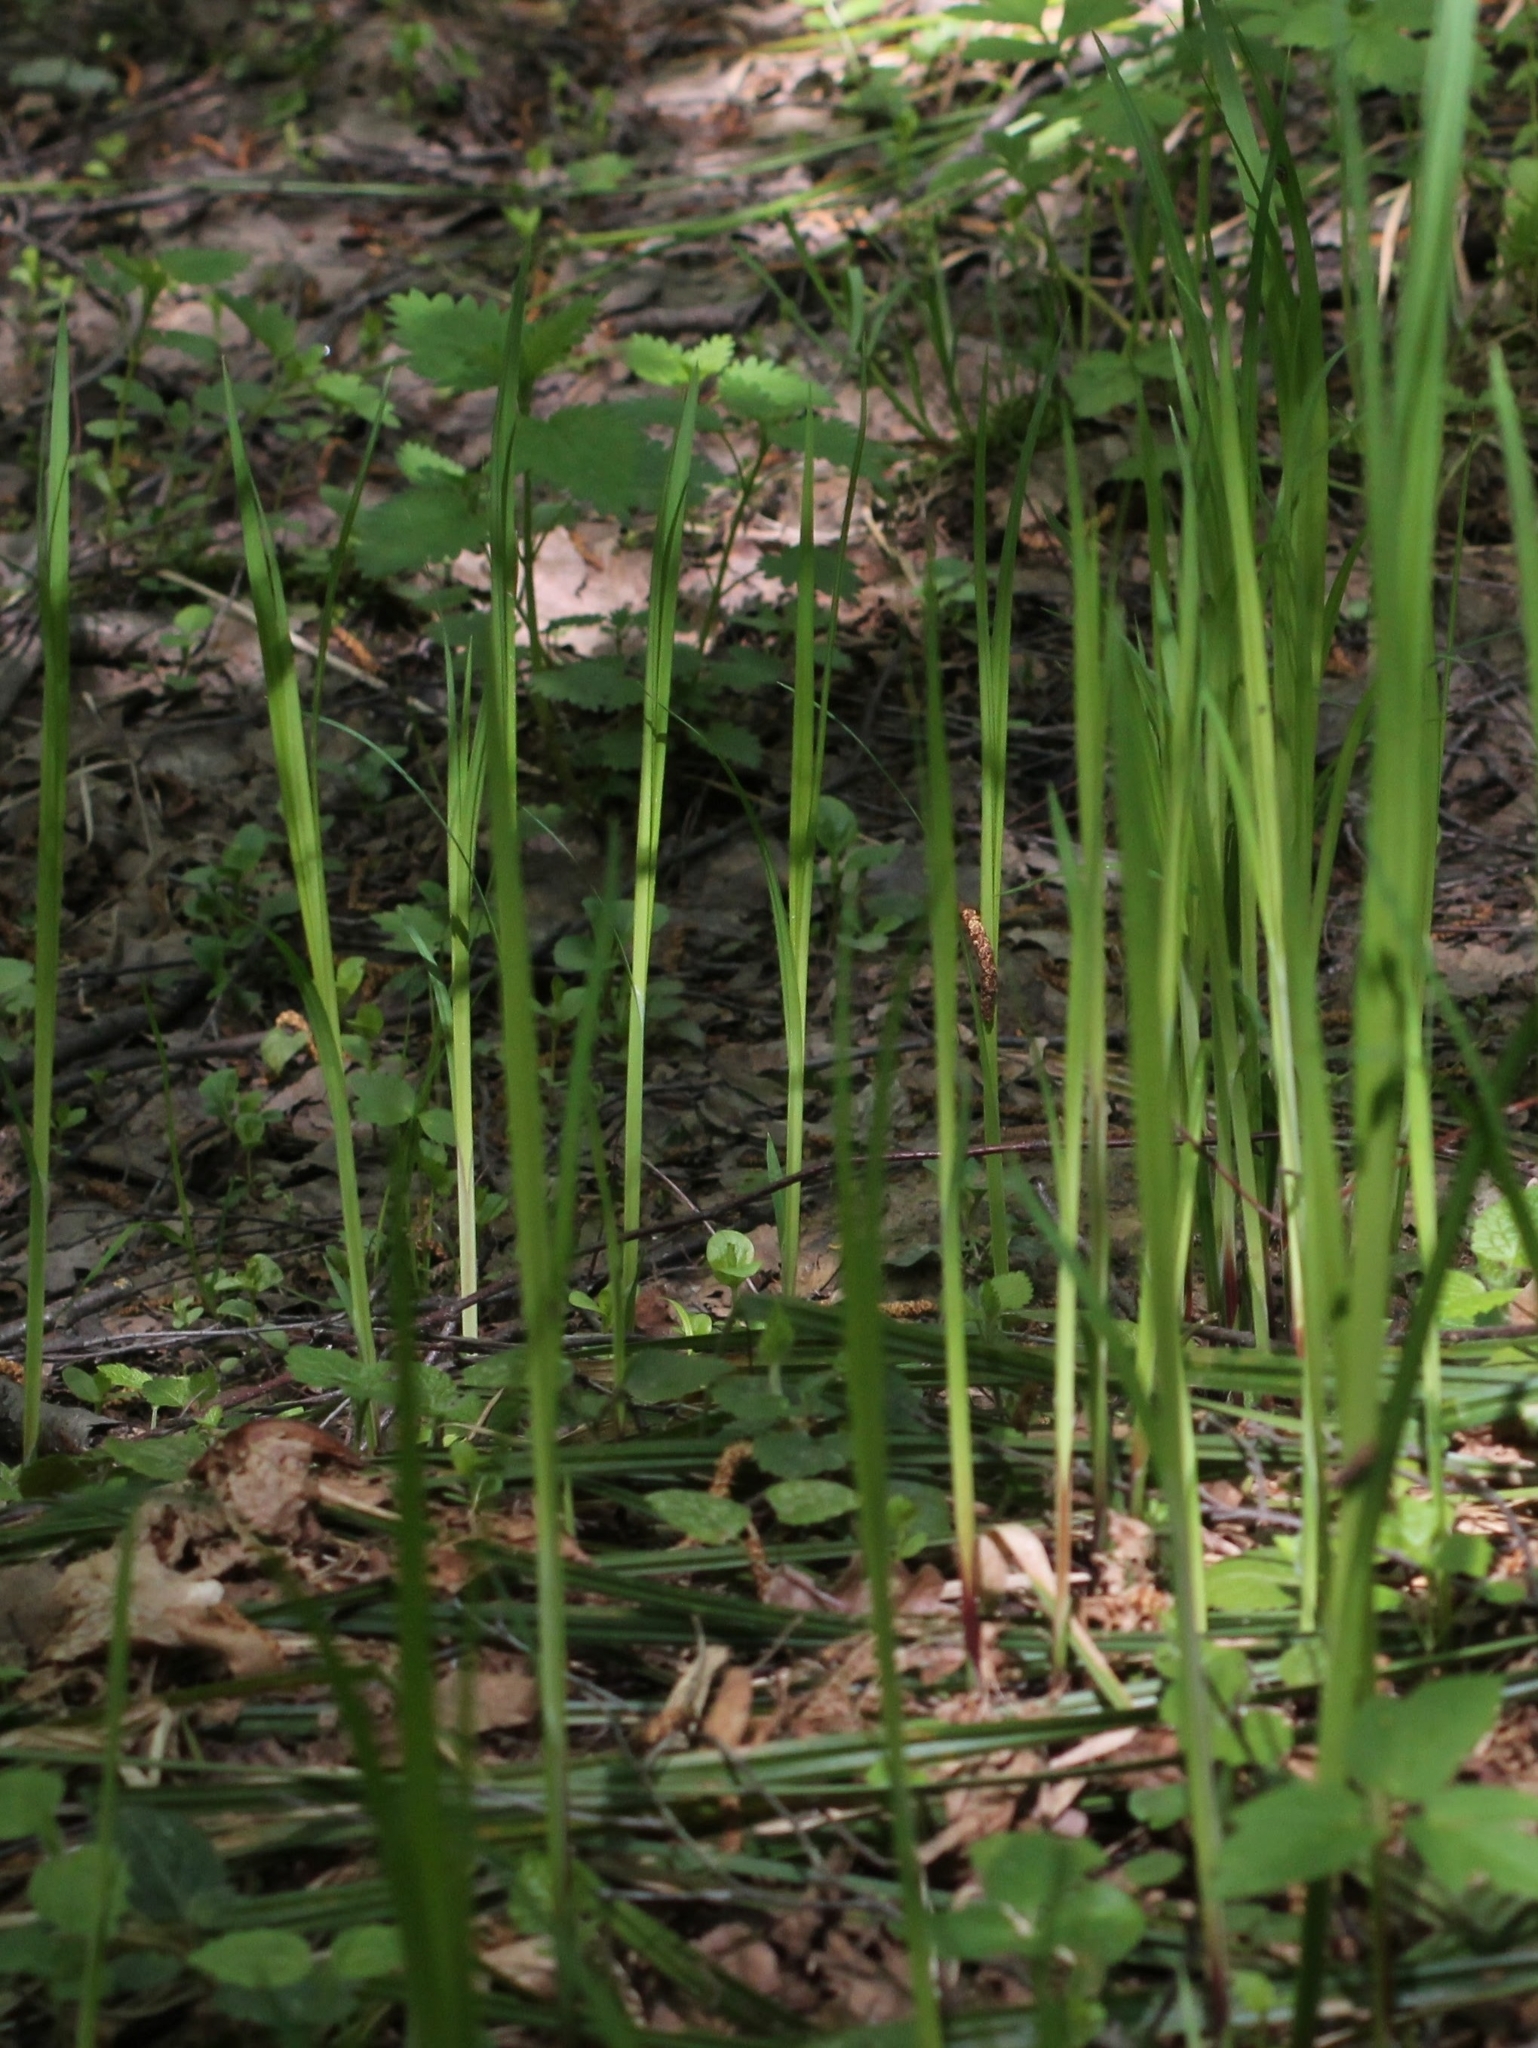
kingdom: Plantae
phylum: Tracheophyta
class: Liliopsida
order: Poales
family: Cyperaceae
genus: Carex
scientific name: Carex pilosa
